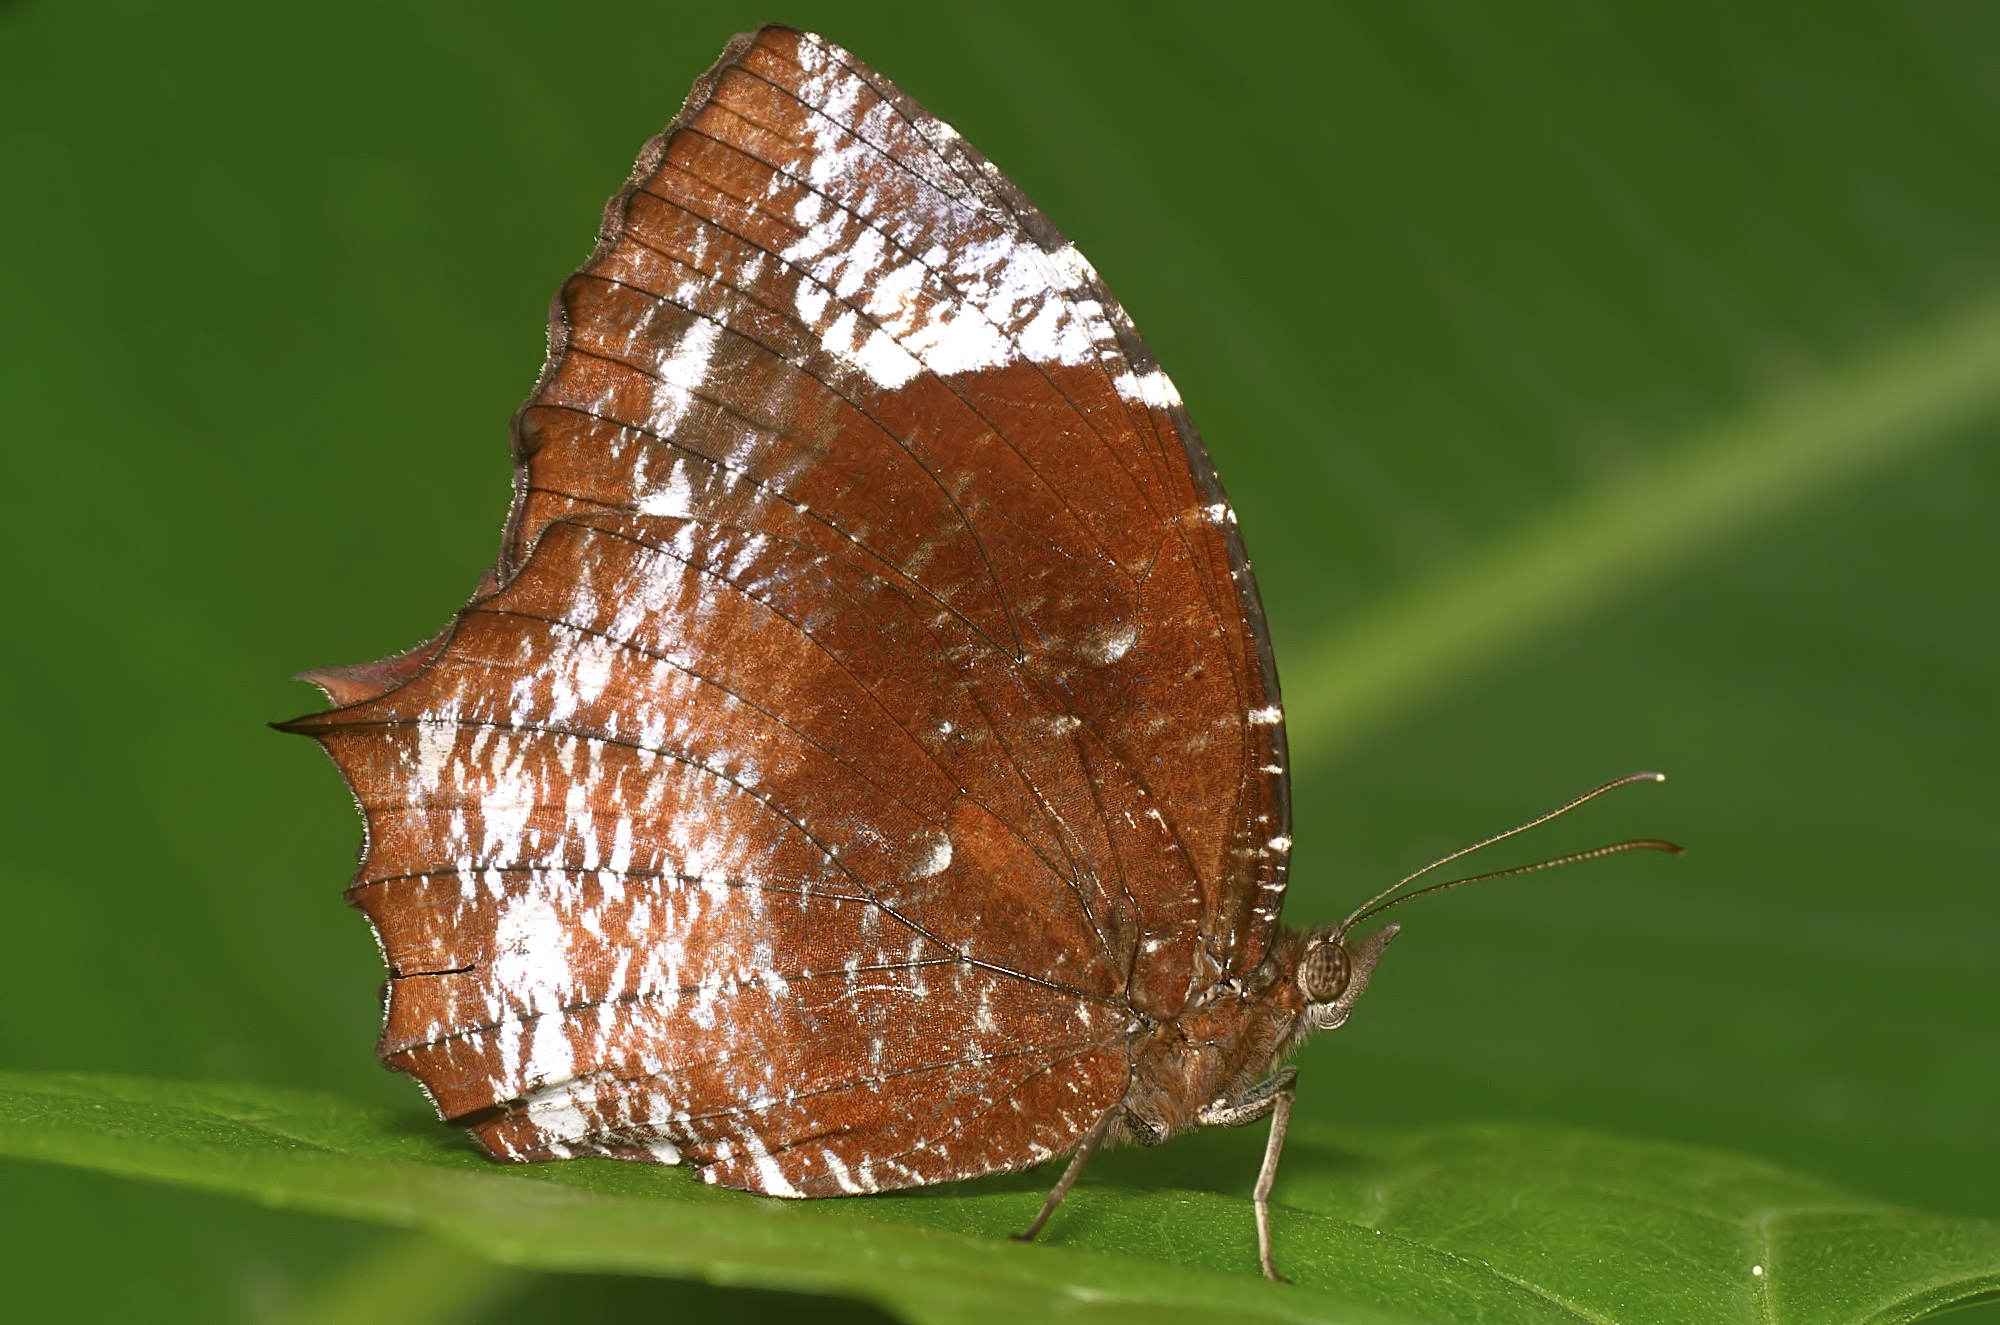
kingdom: Animalia
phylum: Arthropoda
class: Insecta
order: Lepidoptera
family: Nymphalidae
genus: Elymnias
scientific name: Elymnias caudata
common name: Tailed palmfly
